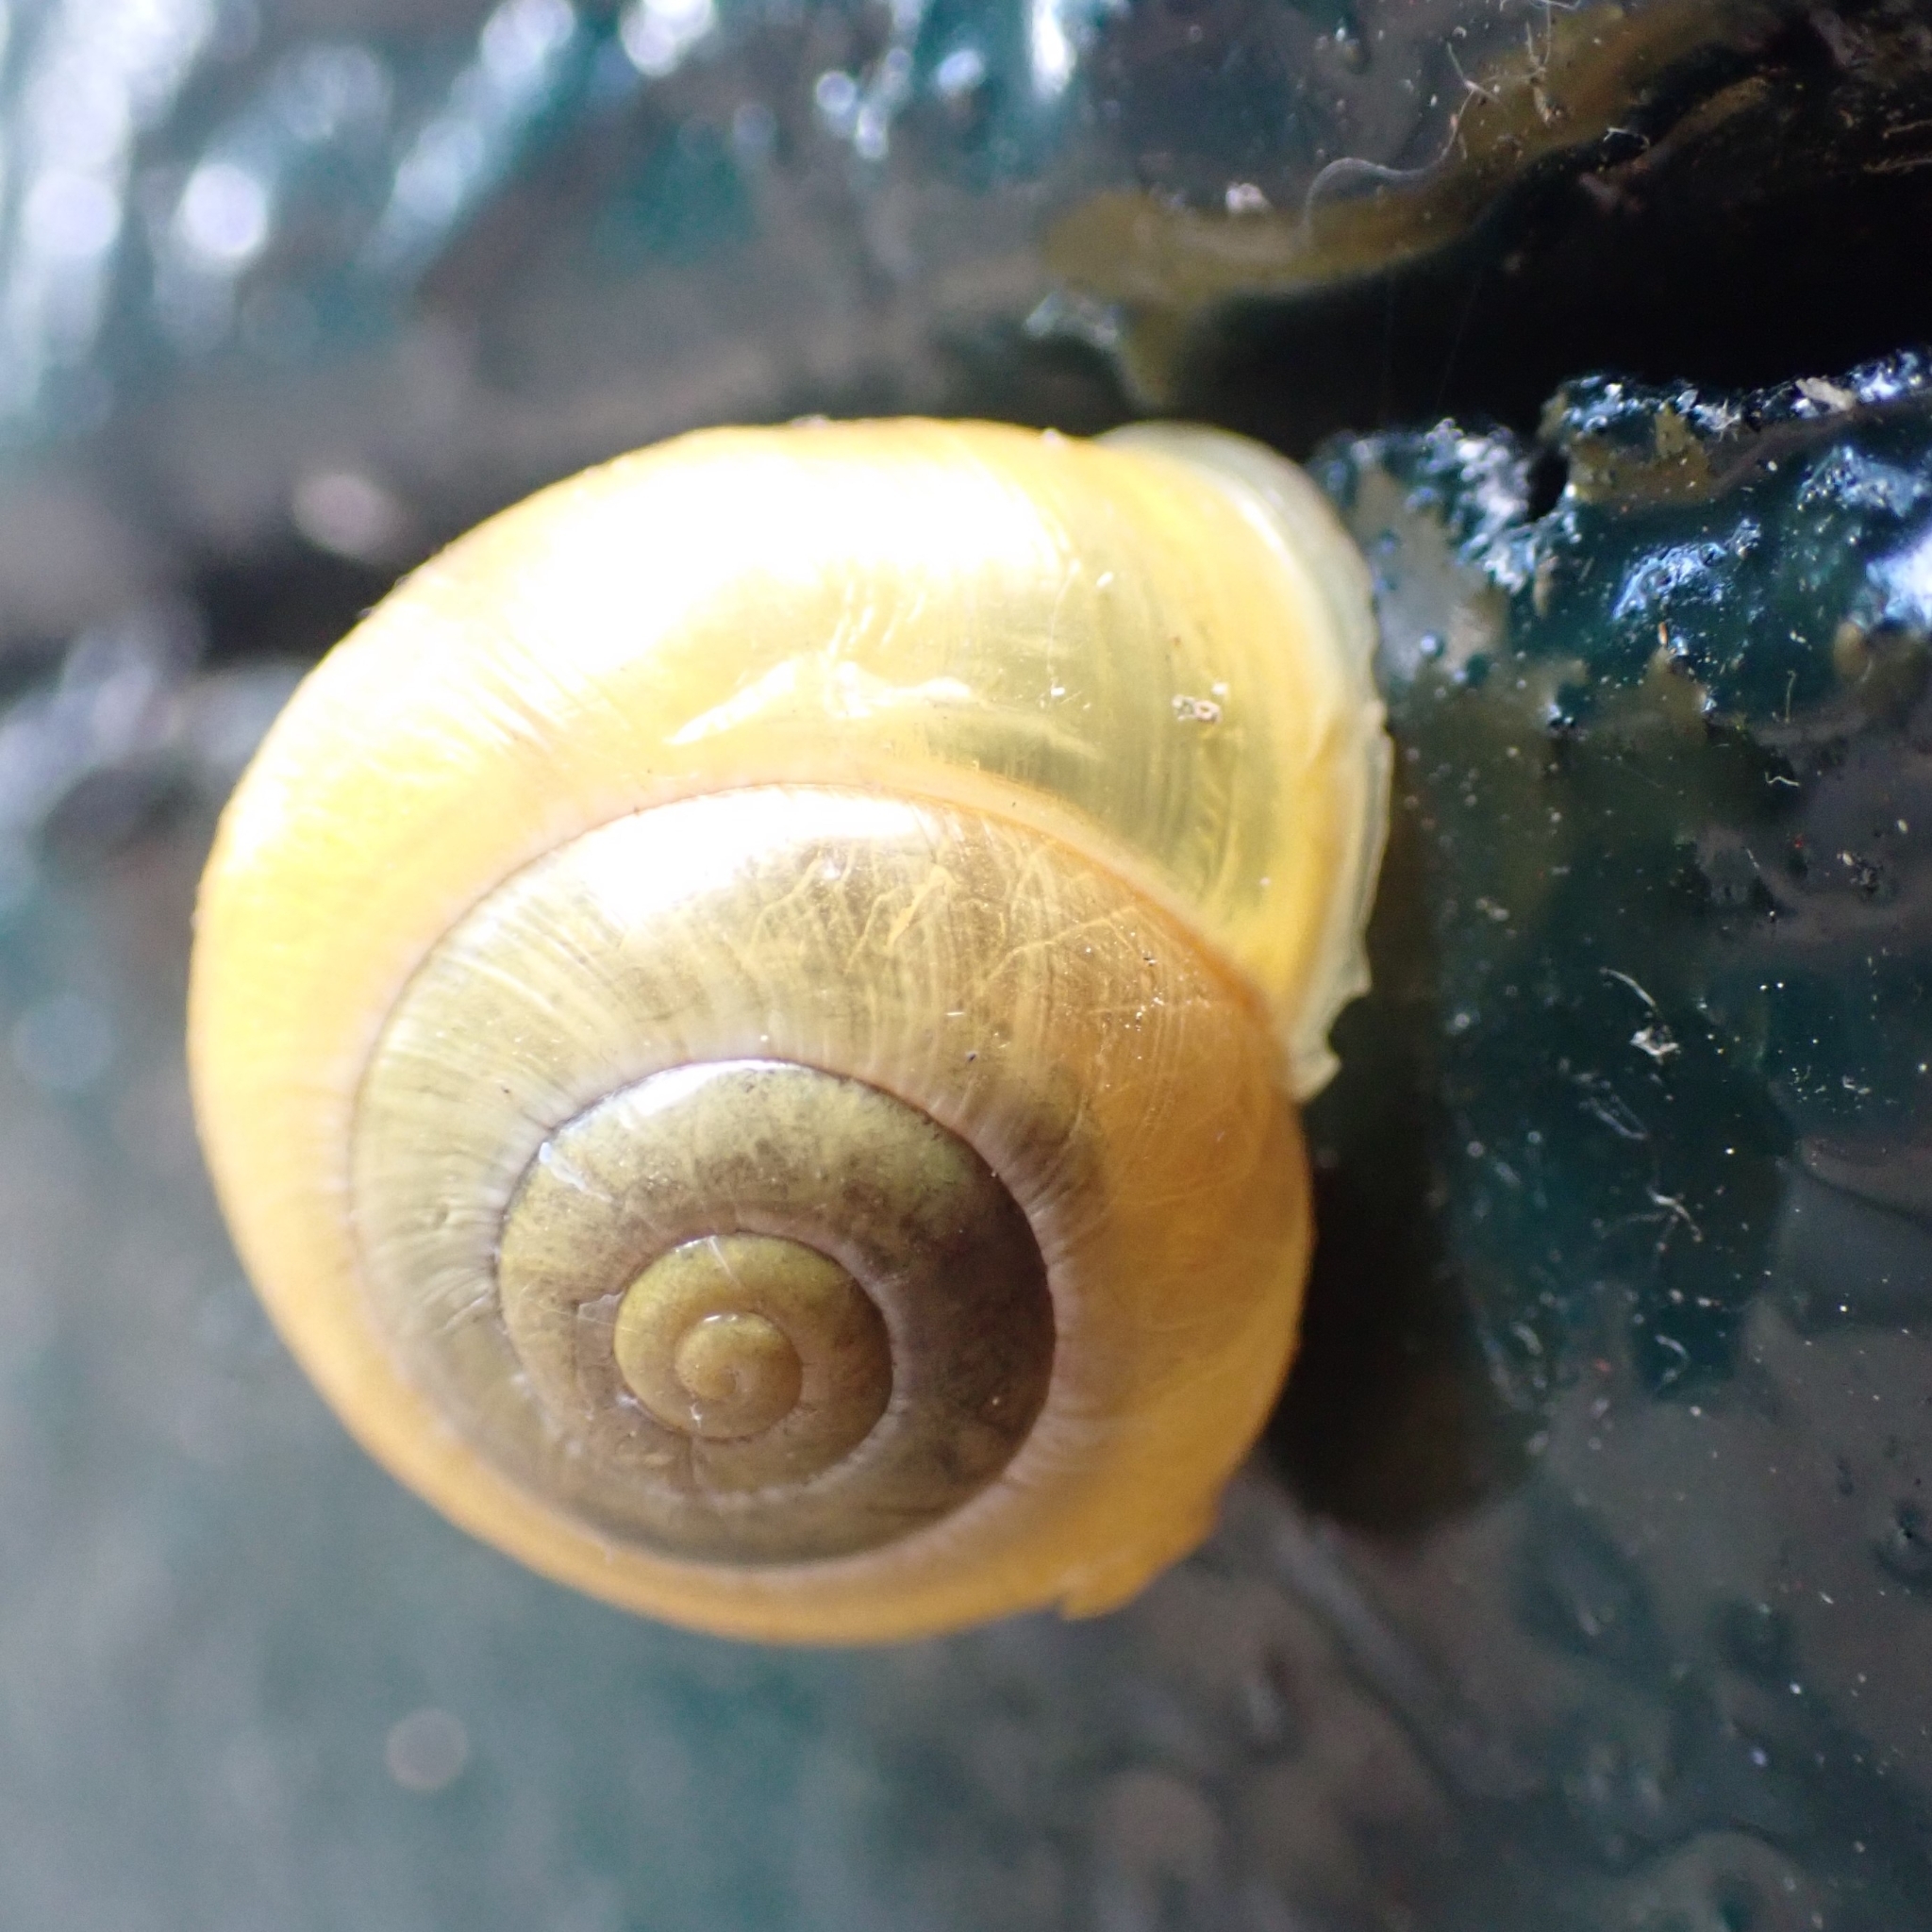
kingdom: Animalia
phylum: Mollusca
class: Gastropoda
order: Stylommatophora
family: Helicidae
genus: Cepaea
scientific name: Cepaea hortensis
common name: White-lip gardensnail
